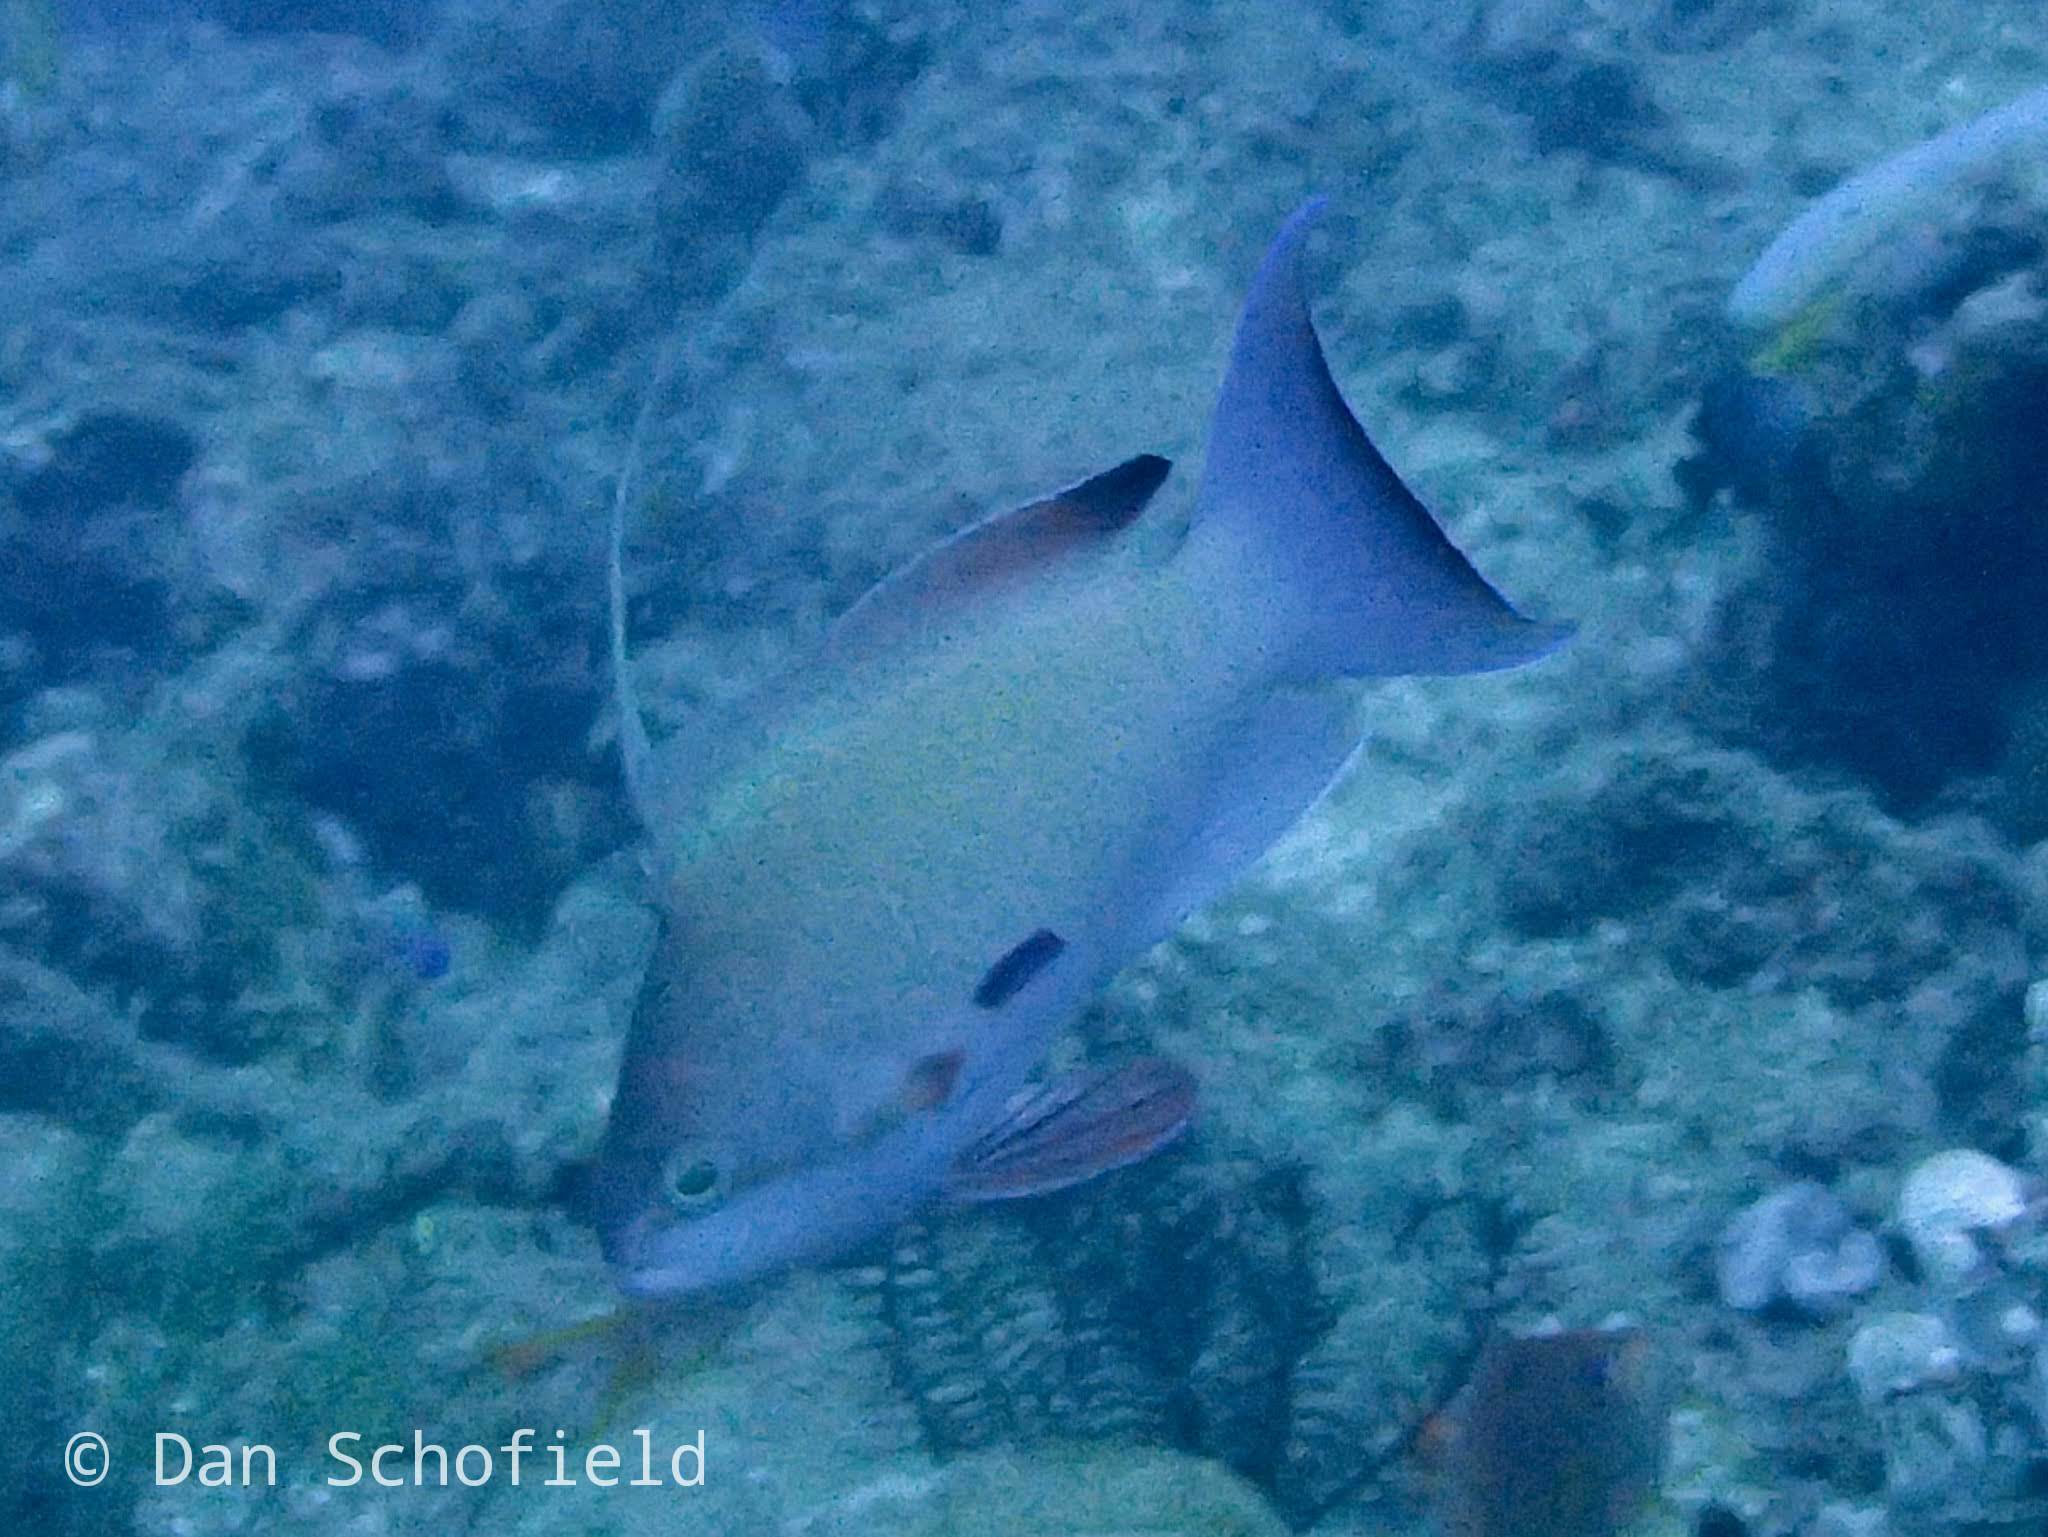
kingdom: Animalia
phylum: Chordata
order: Perciformes
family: Serranidae
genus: Pseudanthias
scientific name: Pseudanthias squamipinnis
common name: Scalefin anthias
